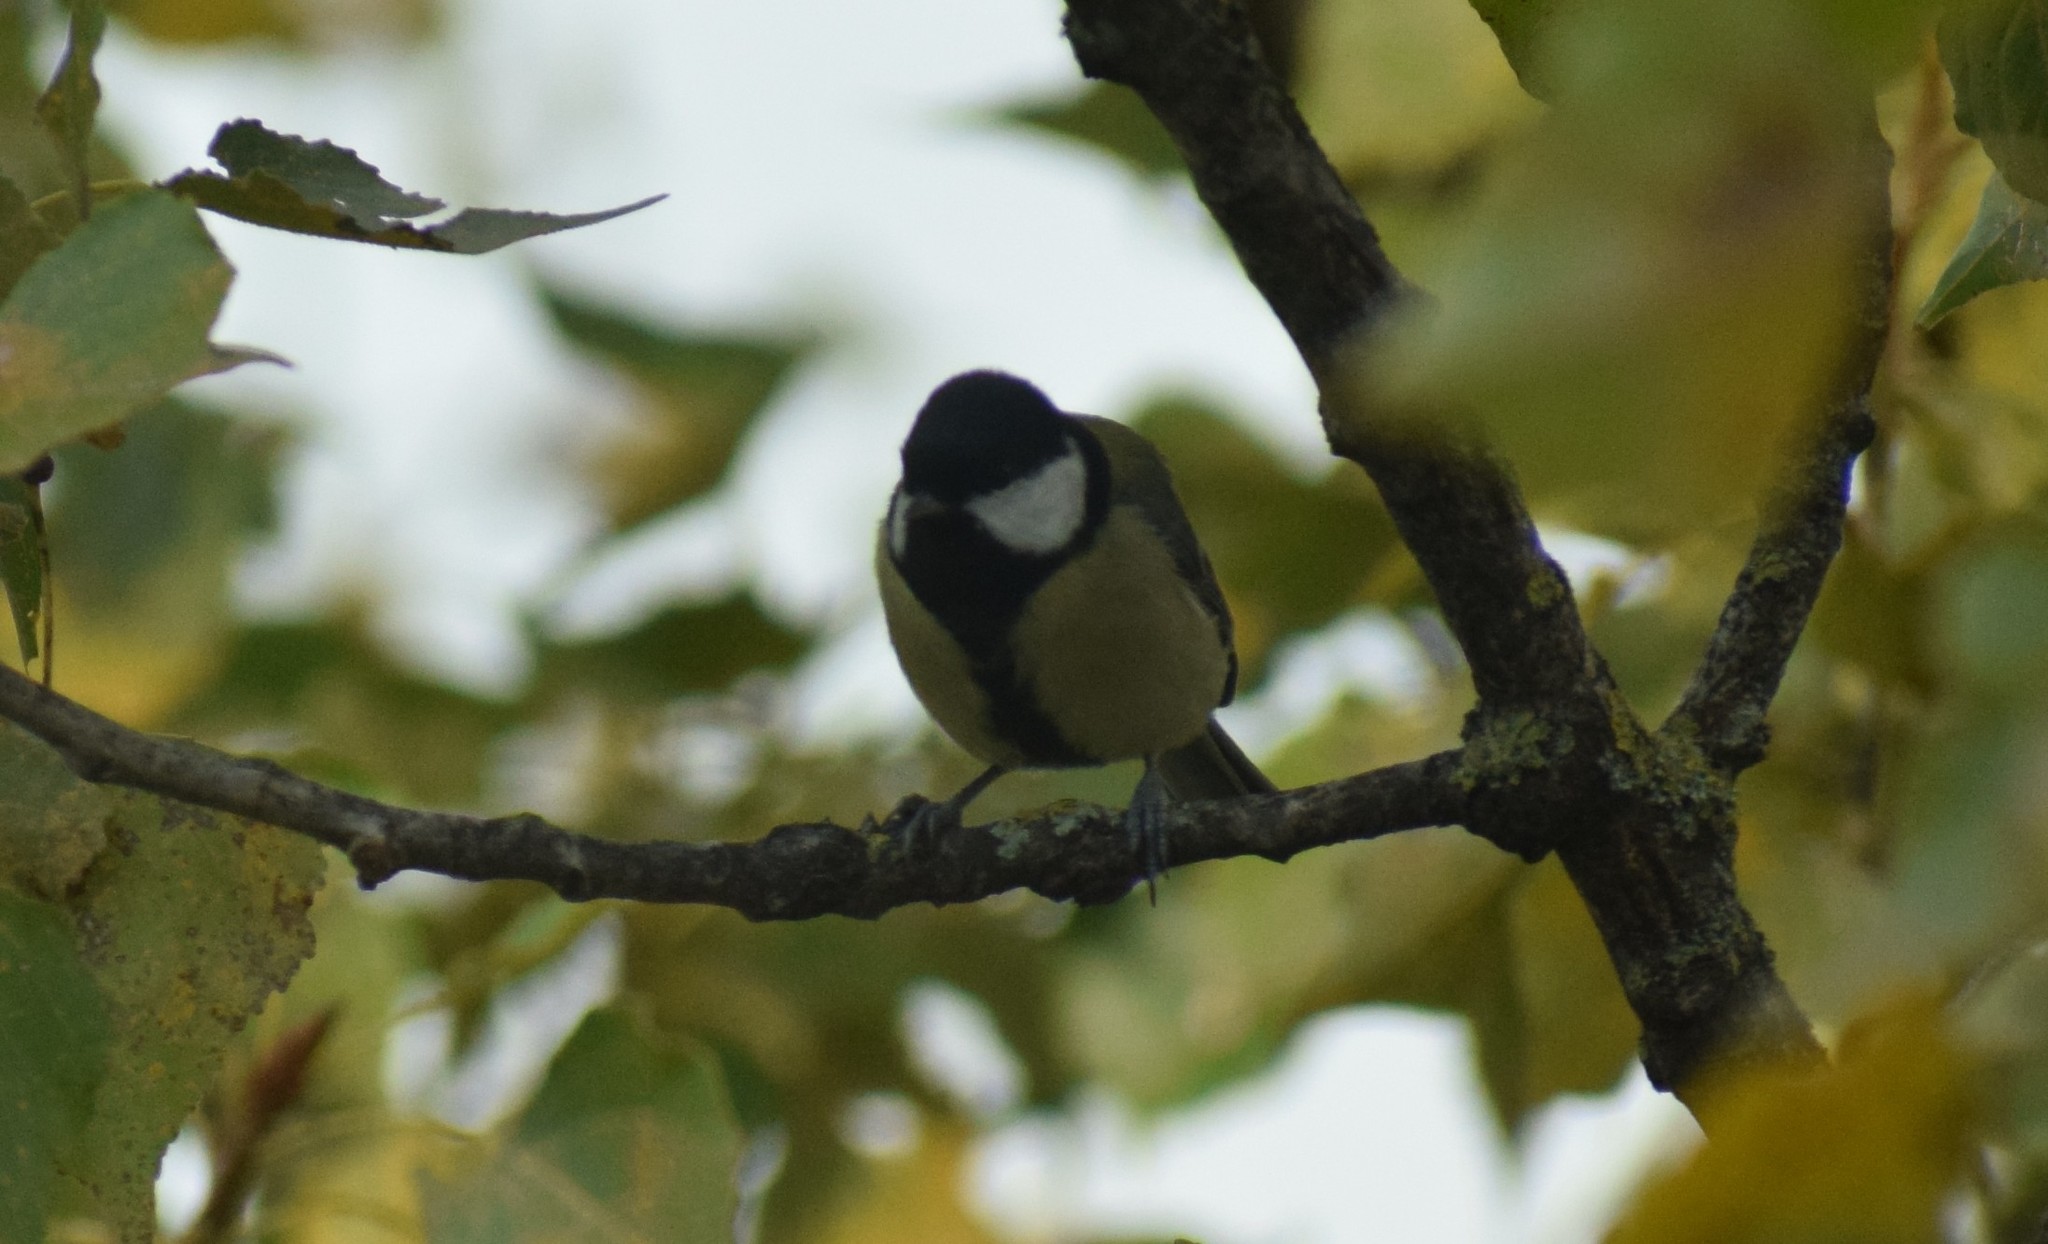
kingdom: Animalia
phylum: Chordata
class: Aves
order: Passeriformes
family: Paridae
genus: Parus
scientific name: Parus major
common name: Great tit
